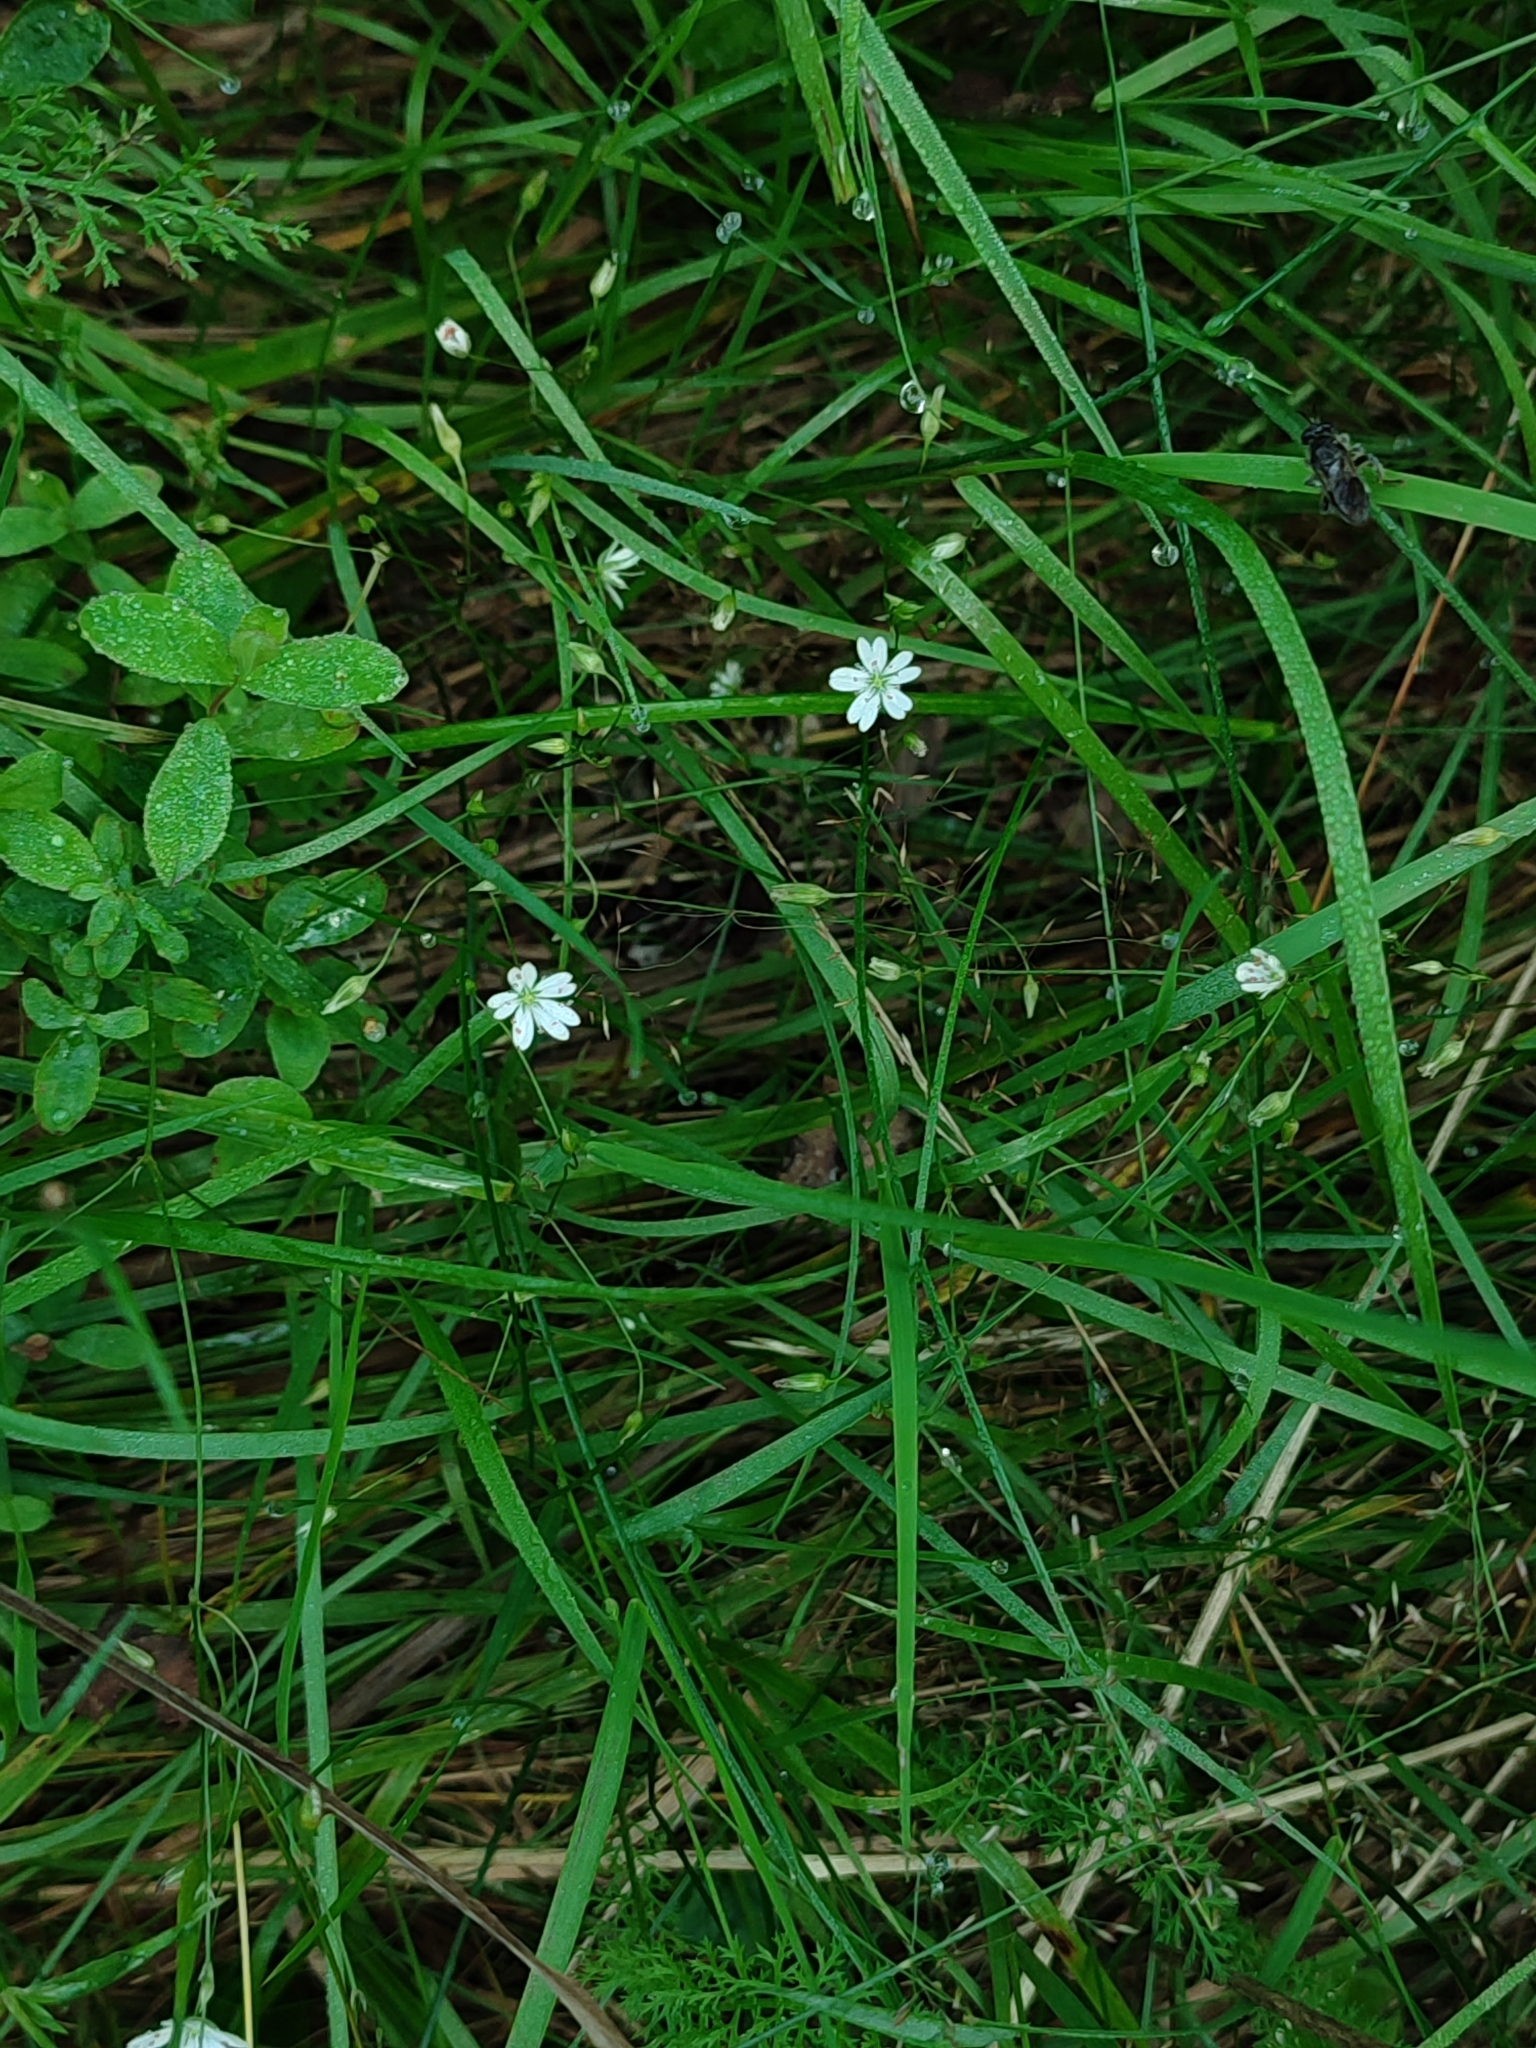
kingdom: Plantae
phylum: Tracheophyta
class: Magnoliopsida
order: Caryophyllales
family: Caryophyllaceae
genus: Stellaria
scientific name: Stellaria graminea
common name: Grass-like starwort
